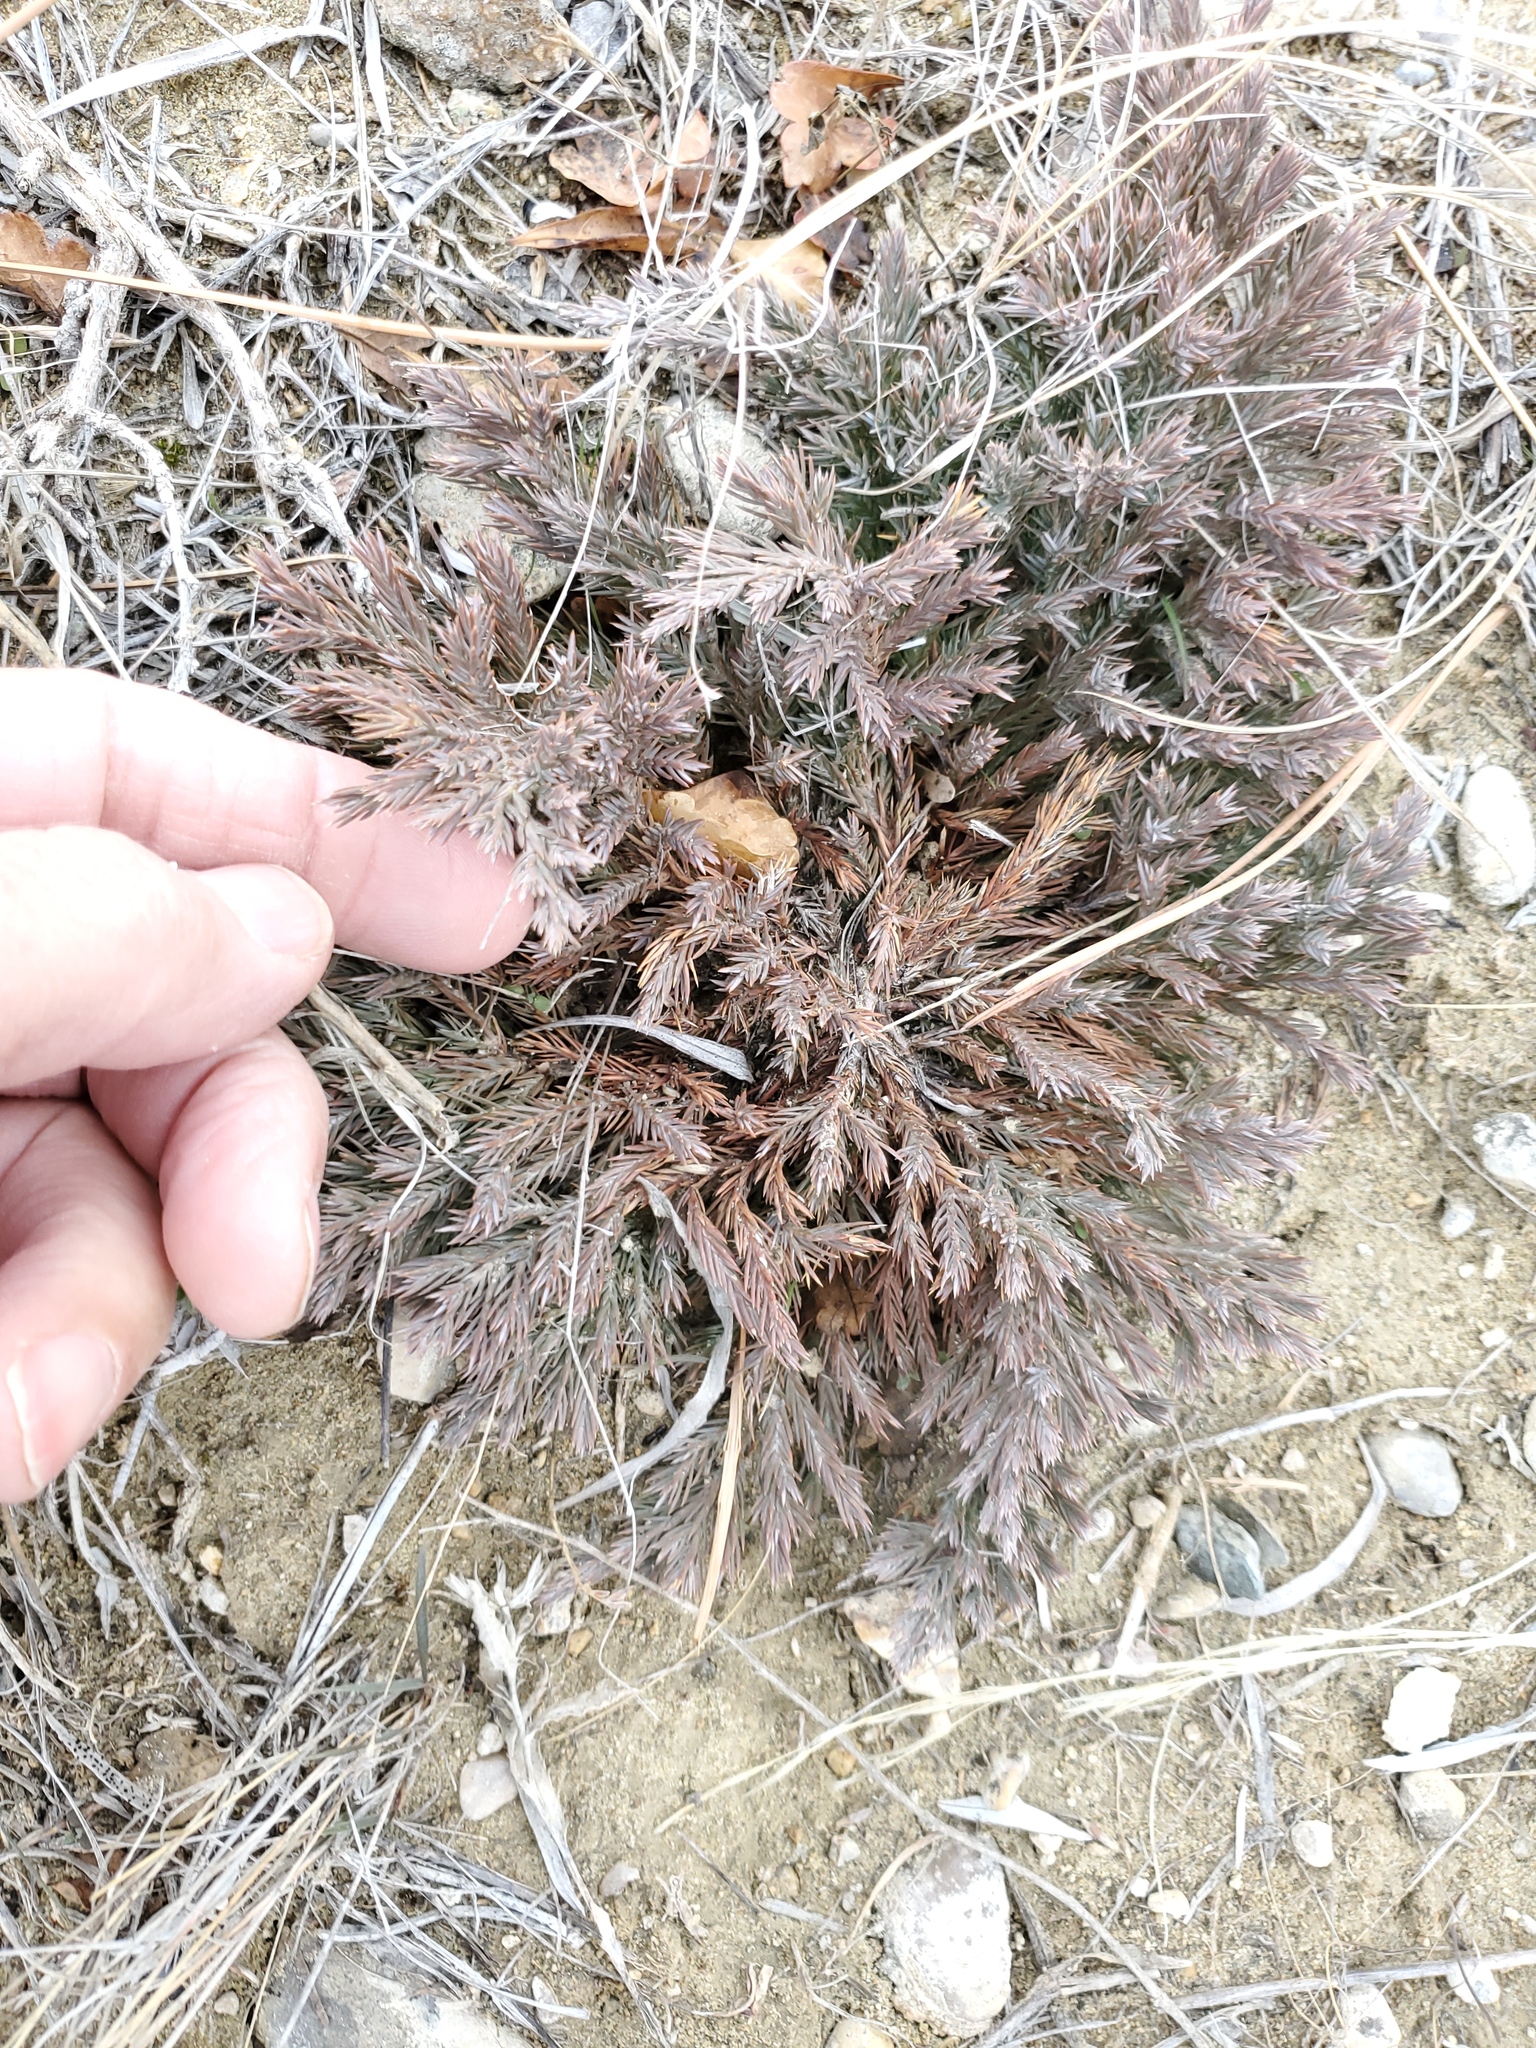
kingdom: Plantae
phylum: Tracheophyta
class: Pinopsida
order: Pinales
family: Cupressaceae
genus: Juniperus
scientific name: Juniperus horizontalis
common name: Creeping juniper
